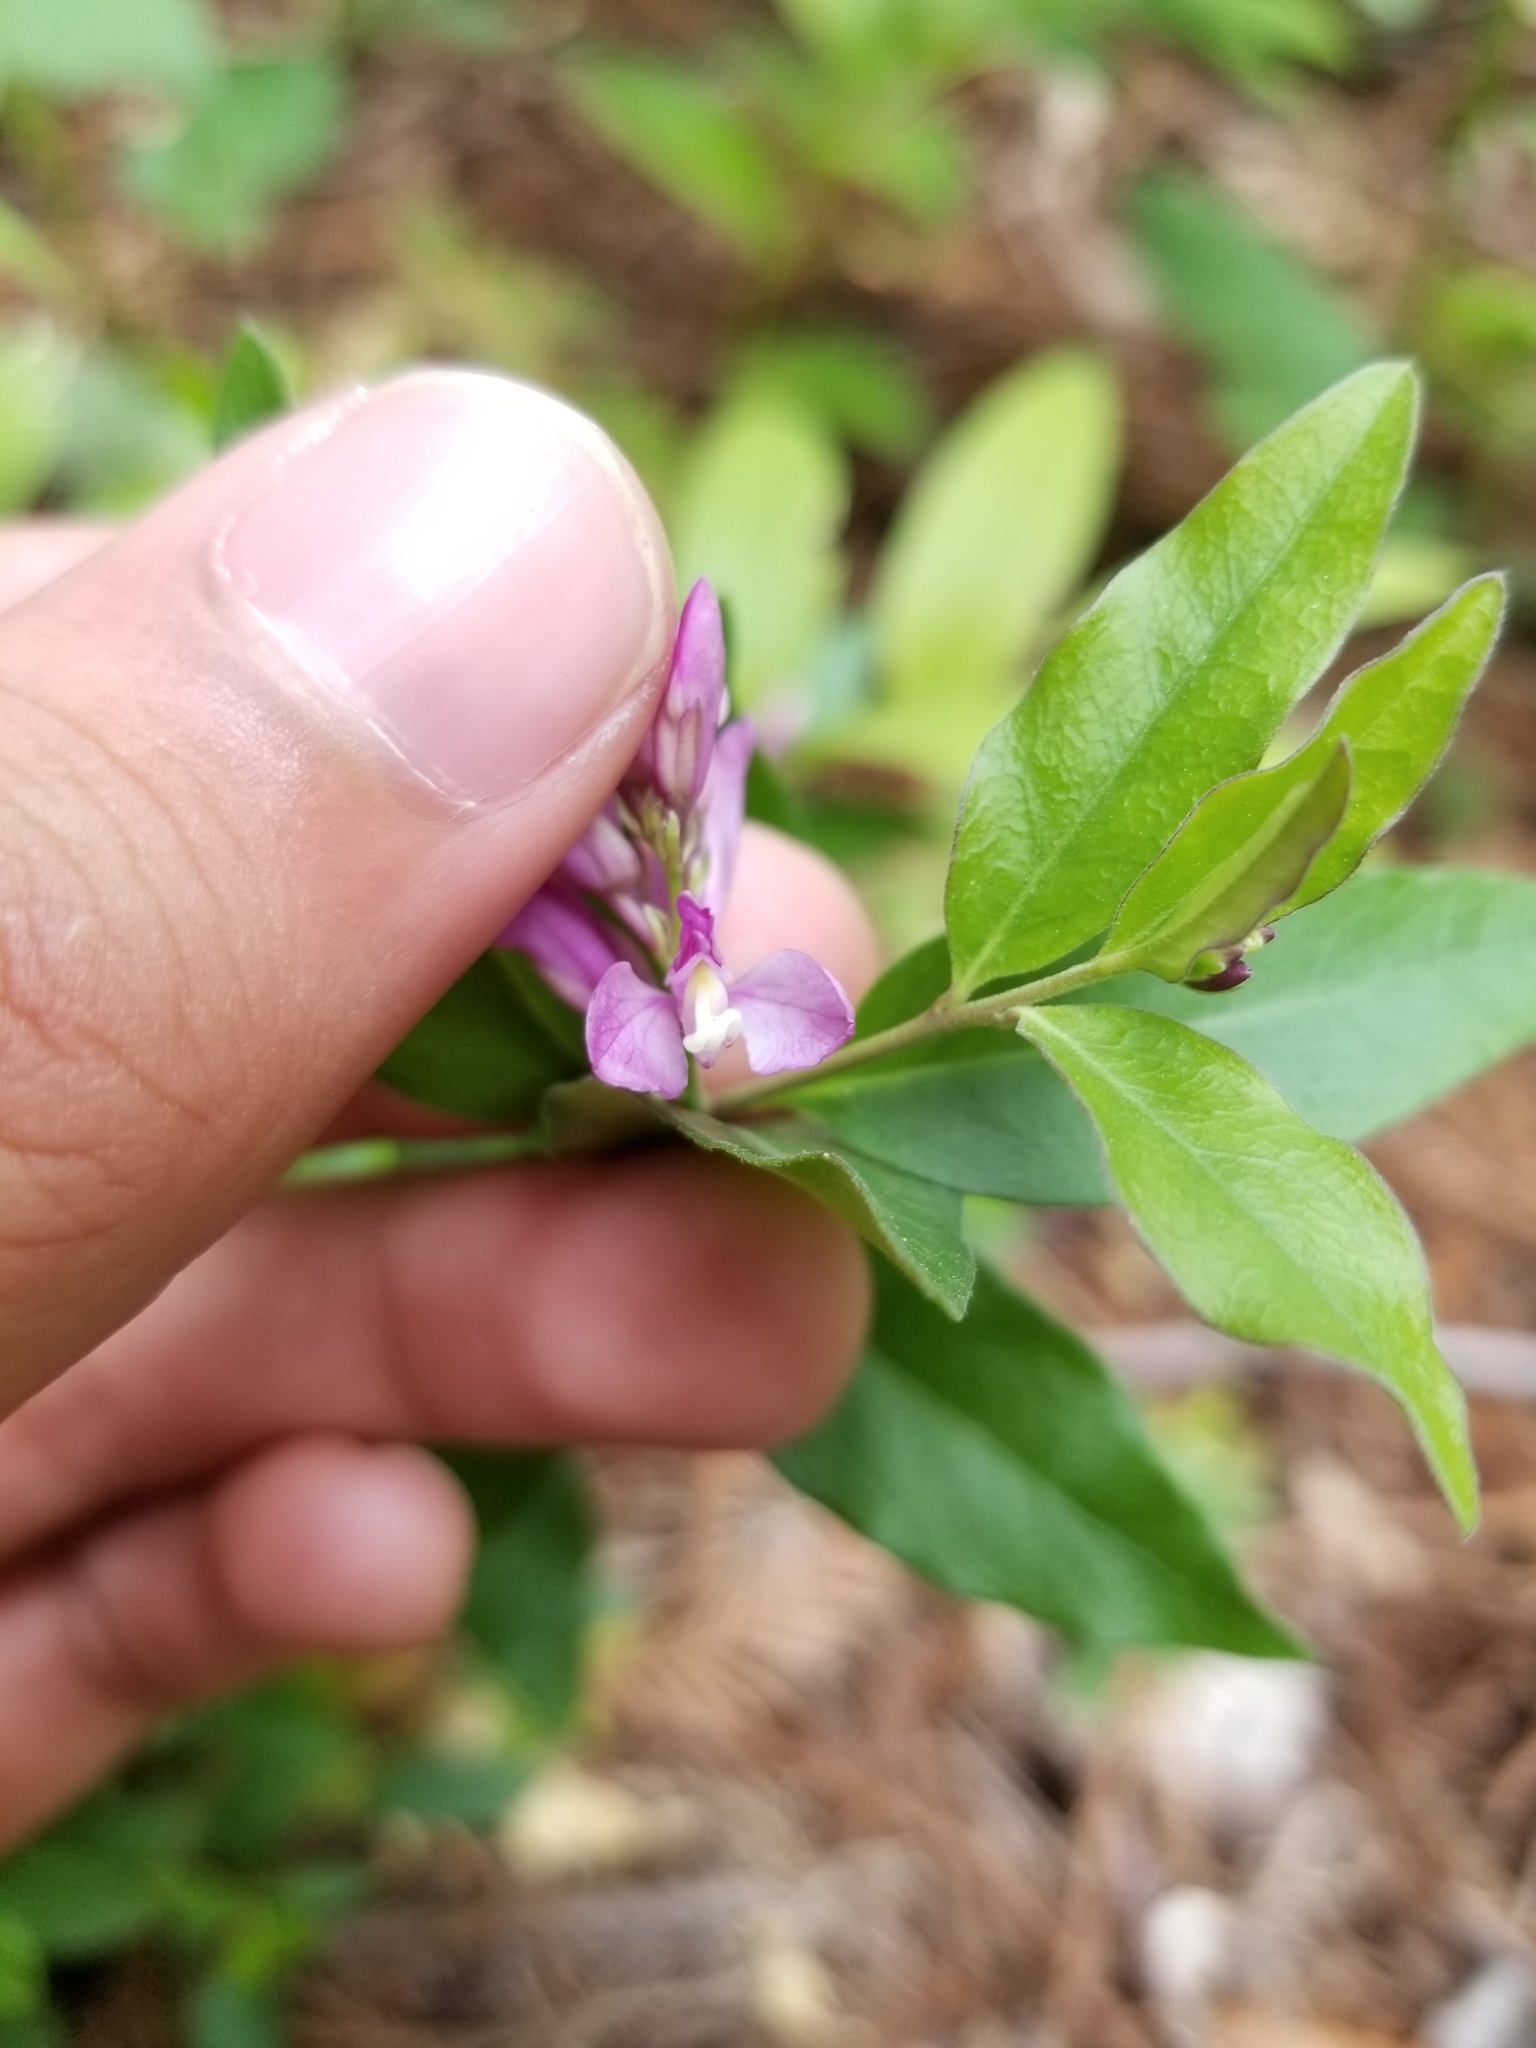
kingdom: Plantae
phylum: Tracheophyta
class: Magnoliopsida
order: Fabales
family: Polygalaceae
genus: Rhinotropis
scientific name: Rhinotropis californica
